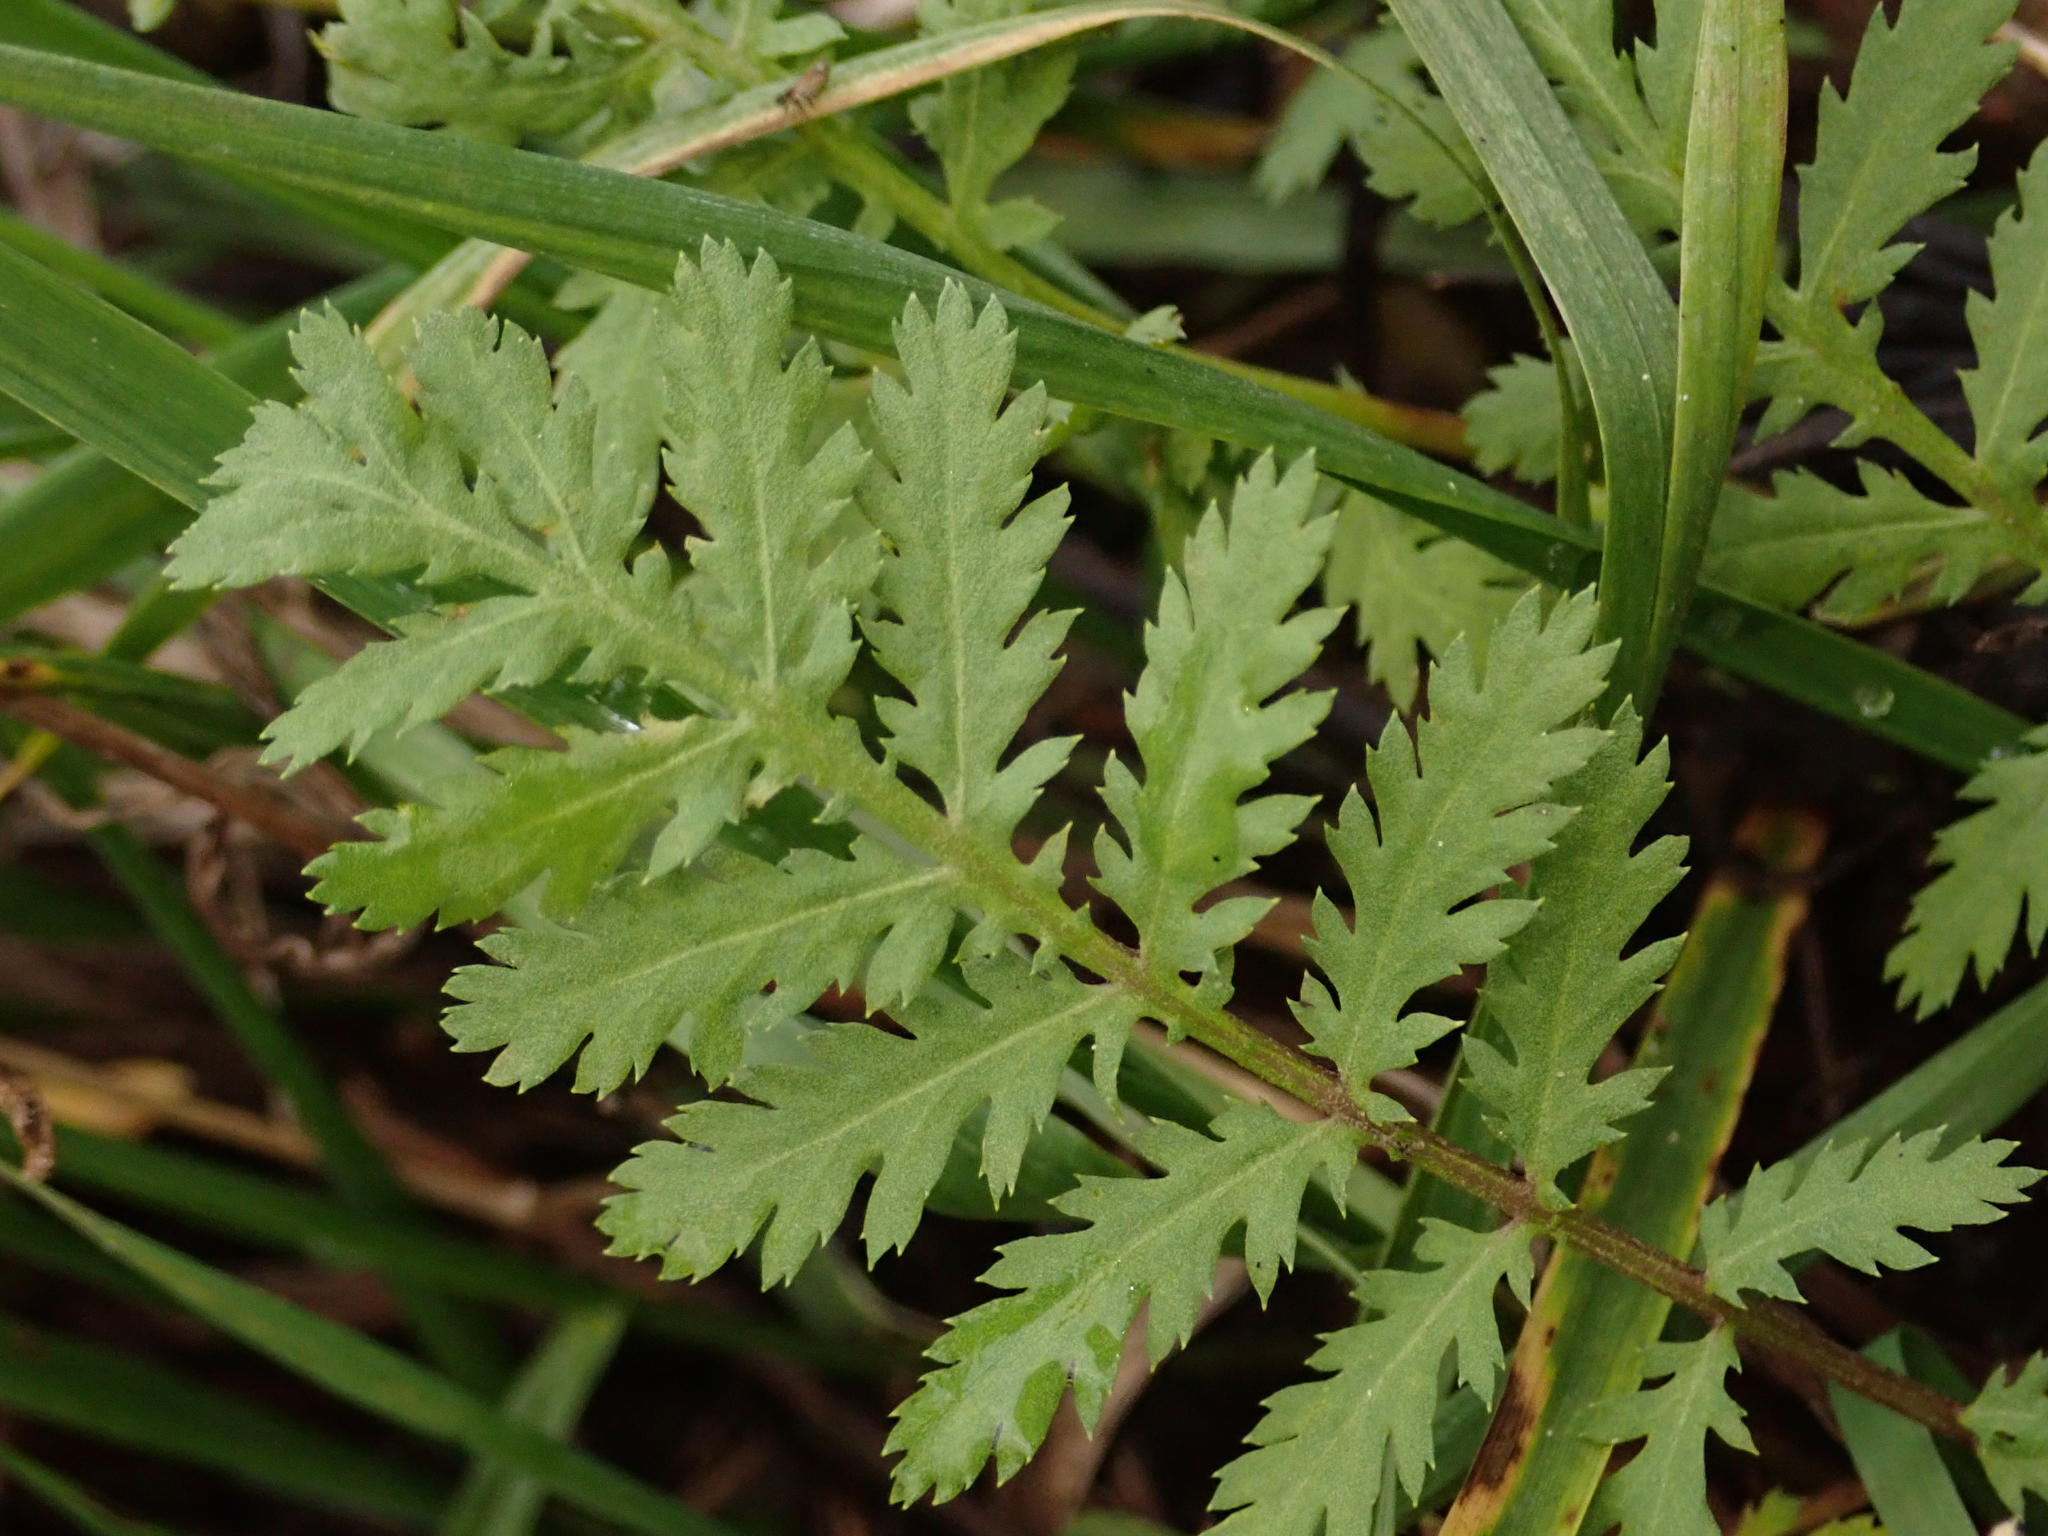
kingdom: Plantae
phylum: Tracheophyta
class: Magnoliopsida
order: Asterales
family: Asteraceae
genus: Tanacetum
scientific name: Tanacetum vulgare
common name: Common tansy
